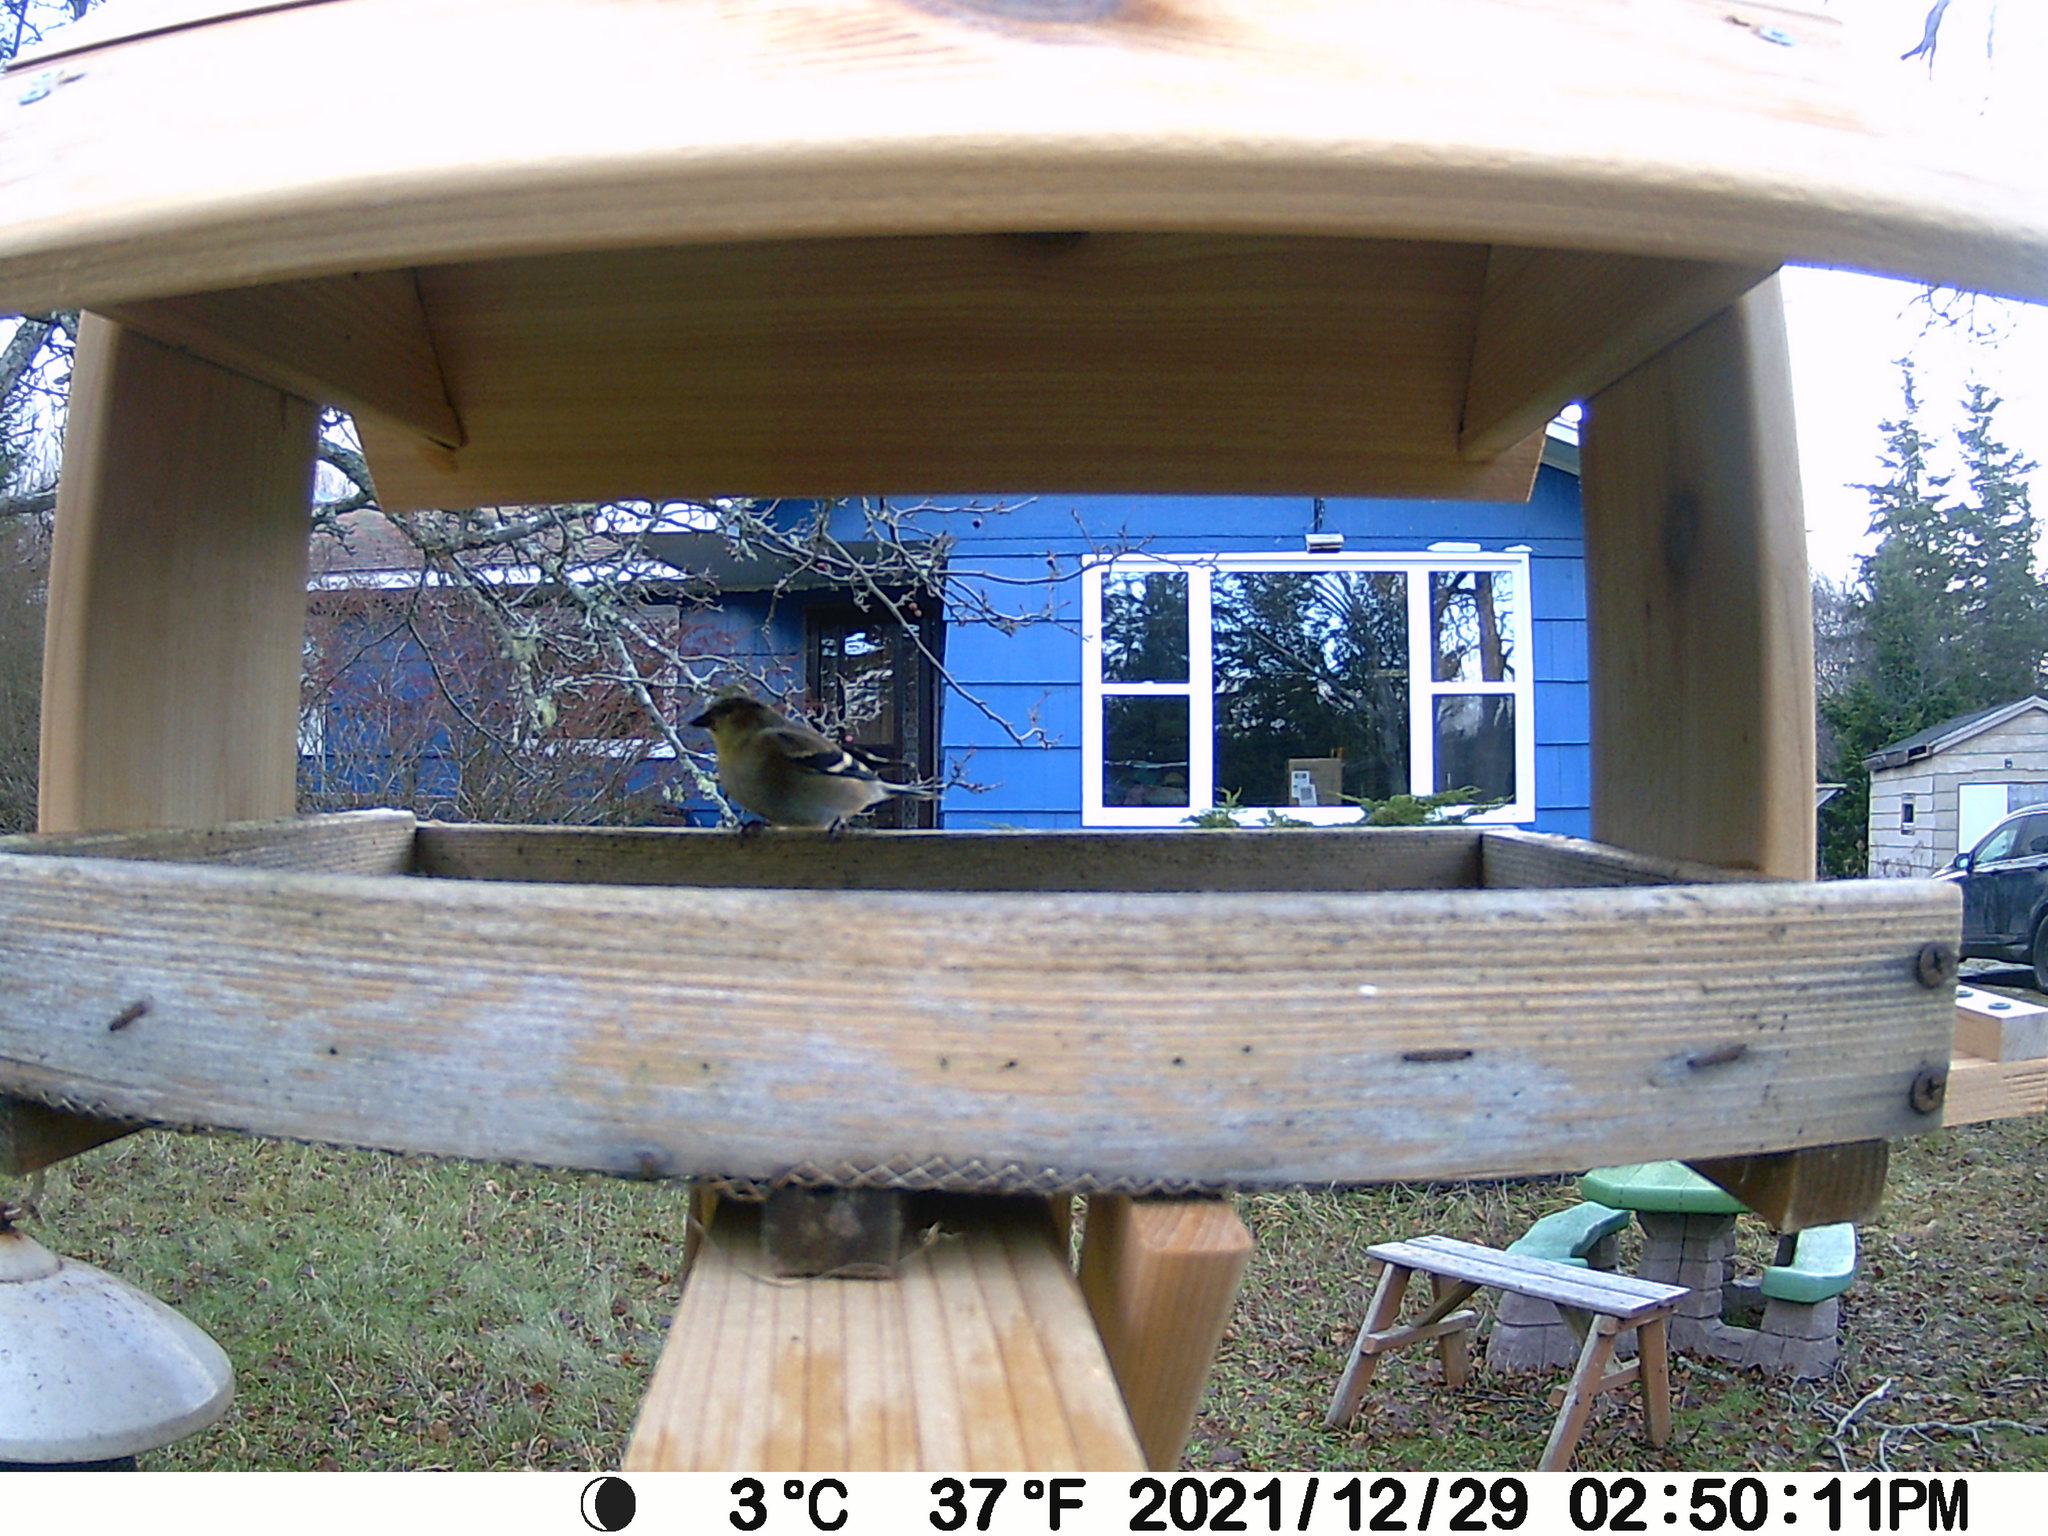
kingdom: Animalia
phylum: Chordata
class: Aves
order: Passeriformes
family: Fringillidae
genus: Spinus
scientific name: Spinus tristis
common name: American goldfinch
